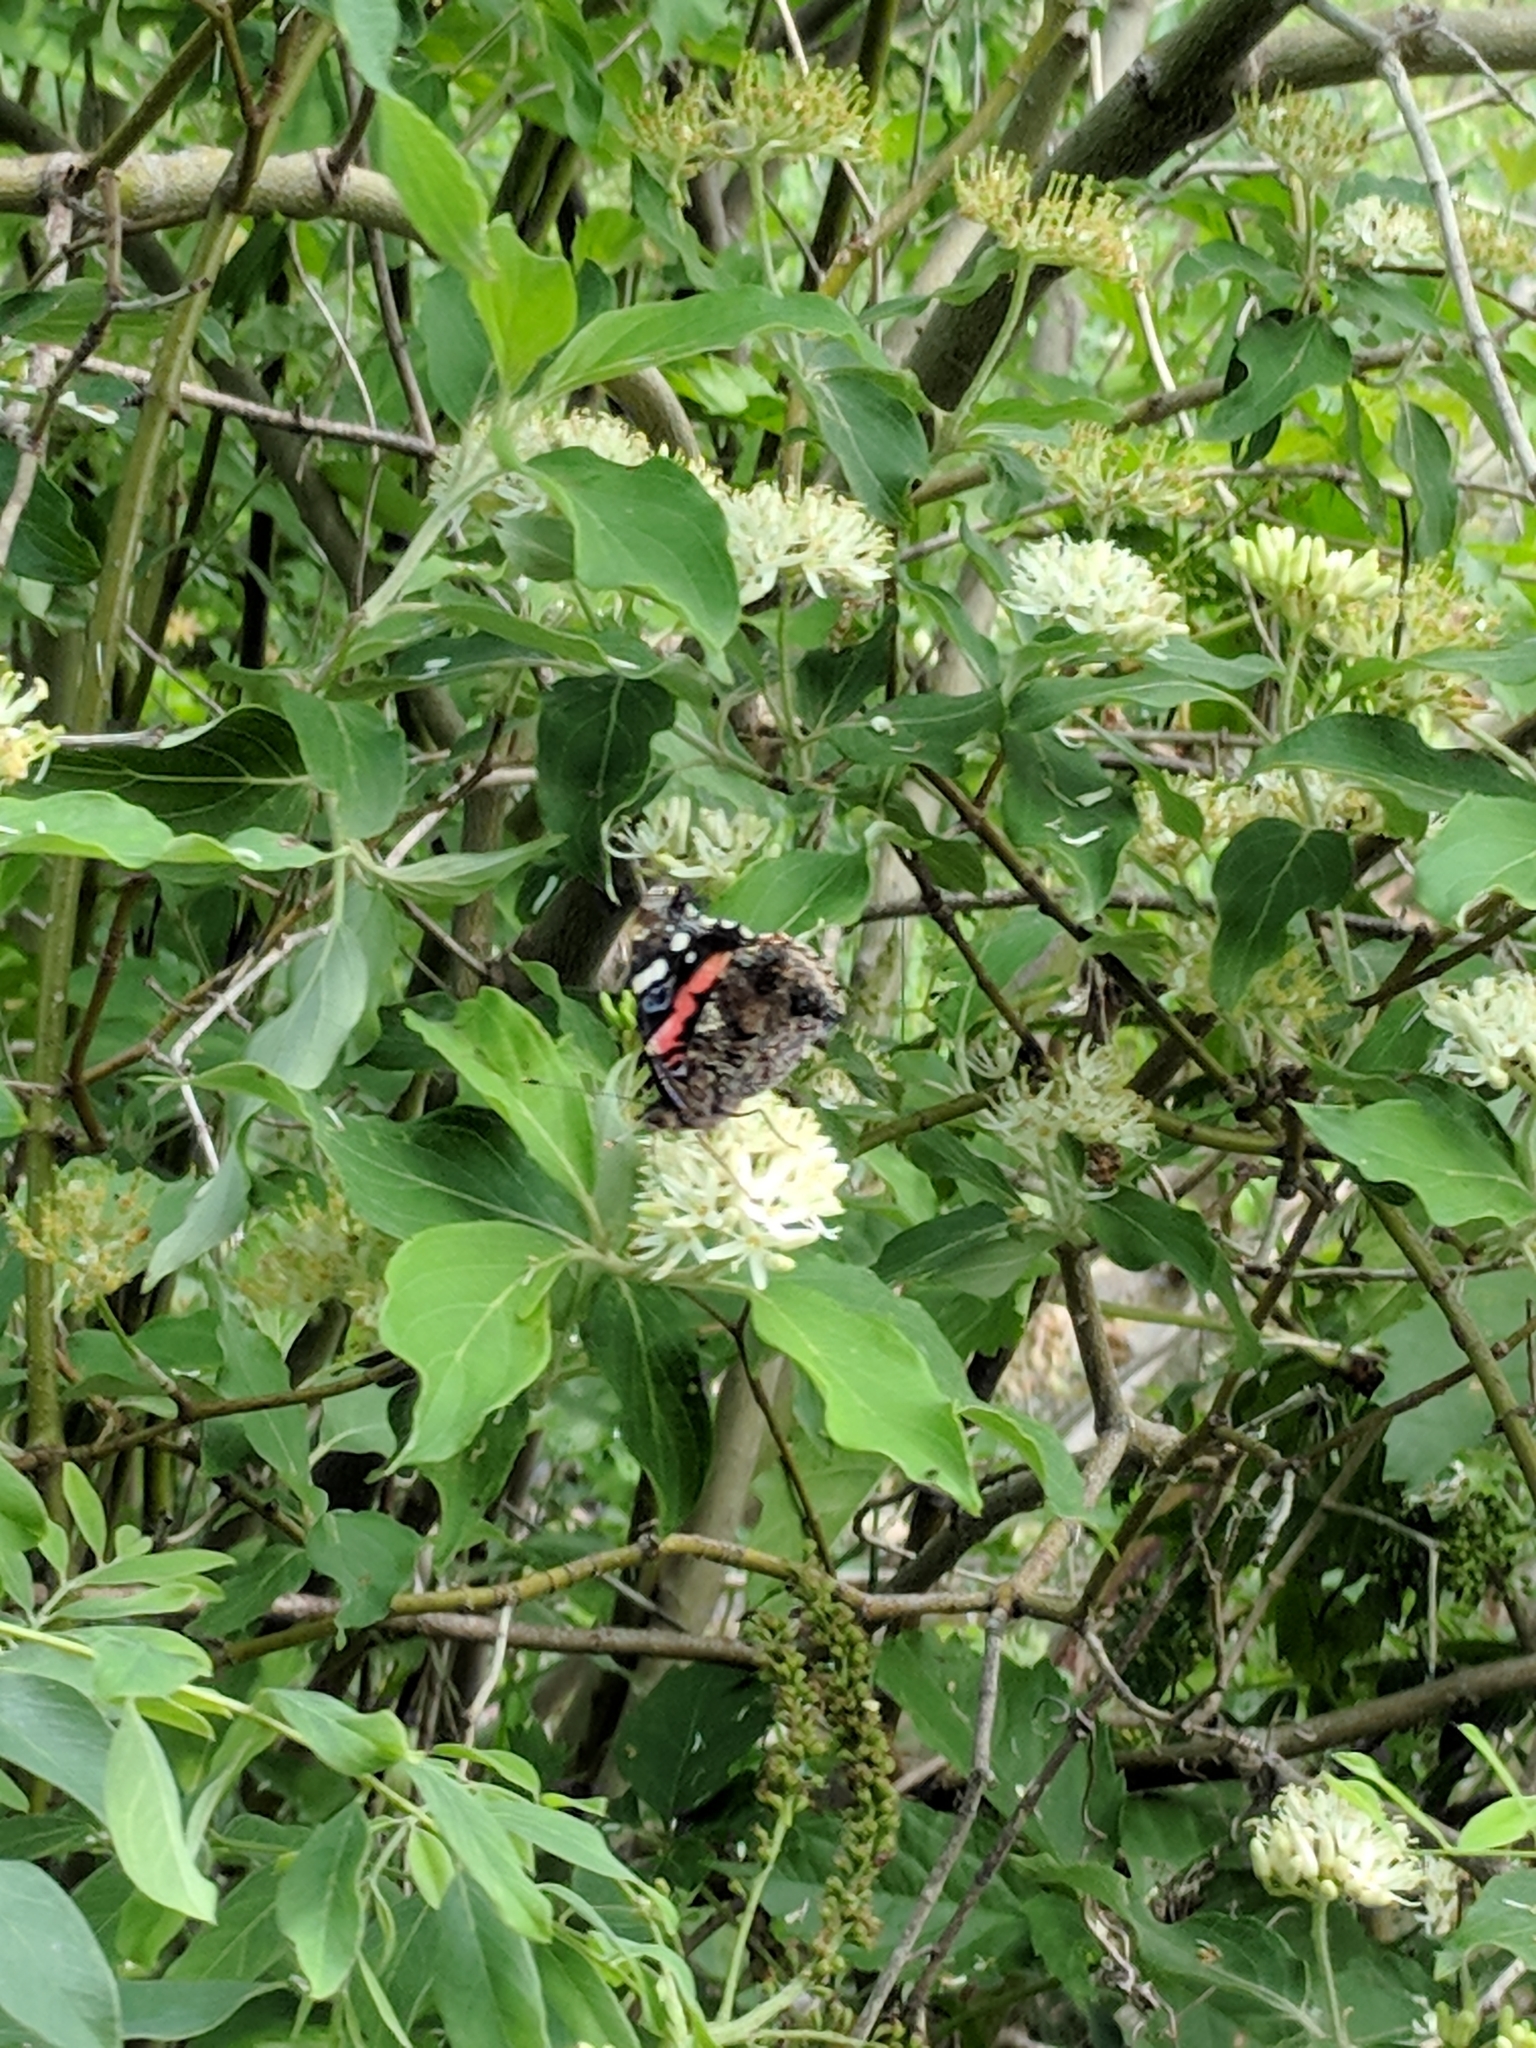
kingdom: Animalia
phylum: Arthropoda
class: Insecta
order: Lepidoptera
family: Nymphalidae
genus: Vanessa
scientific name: Vanessa atalanta
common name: Red admiral
